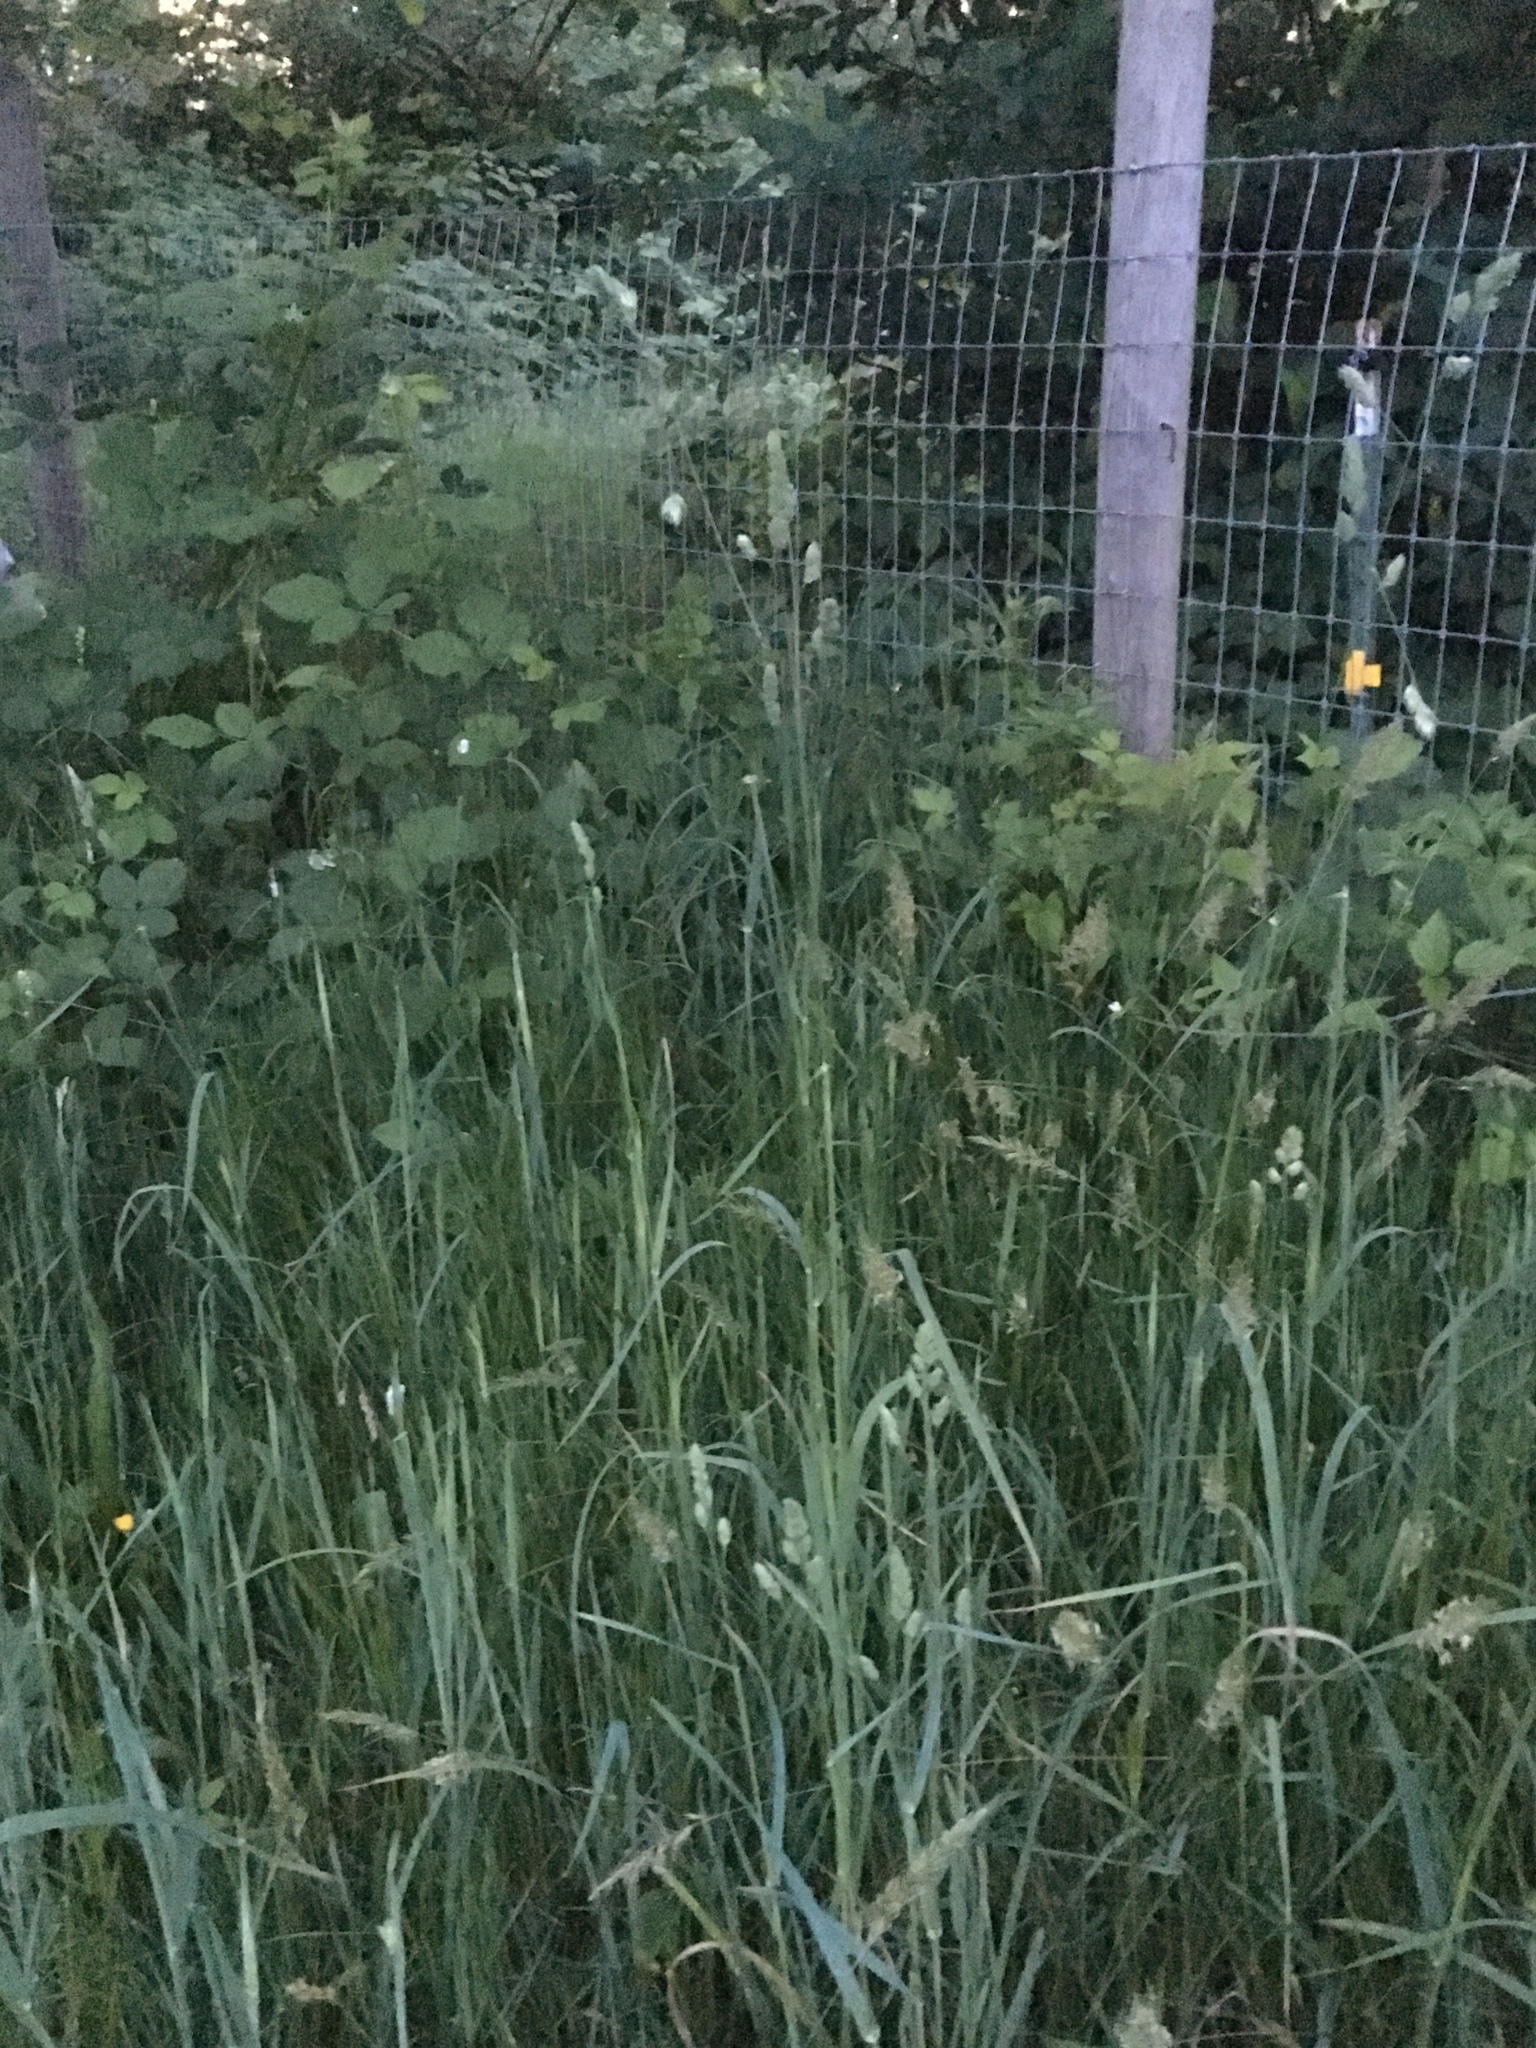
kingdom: Plantae
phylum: Tracheophyta
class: Liliopsida
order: Poales
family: Poaceae
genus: Dactylis
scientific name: Dactylis glomerata
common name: Orchardgrass
